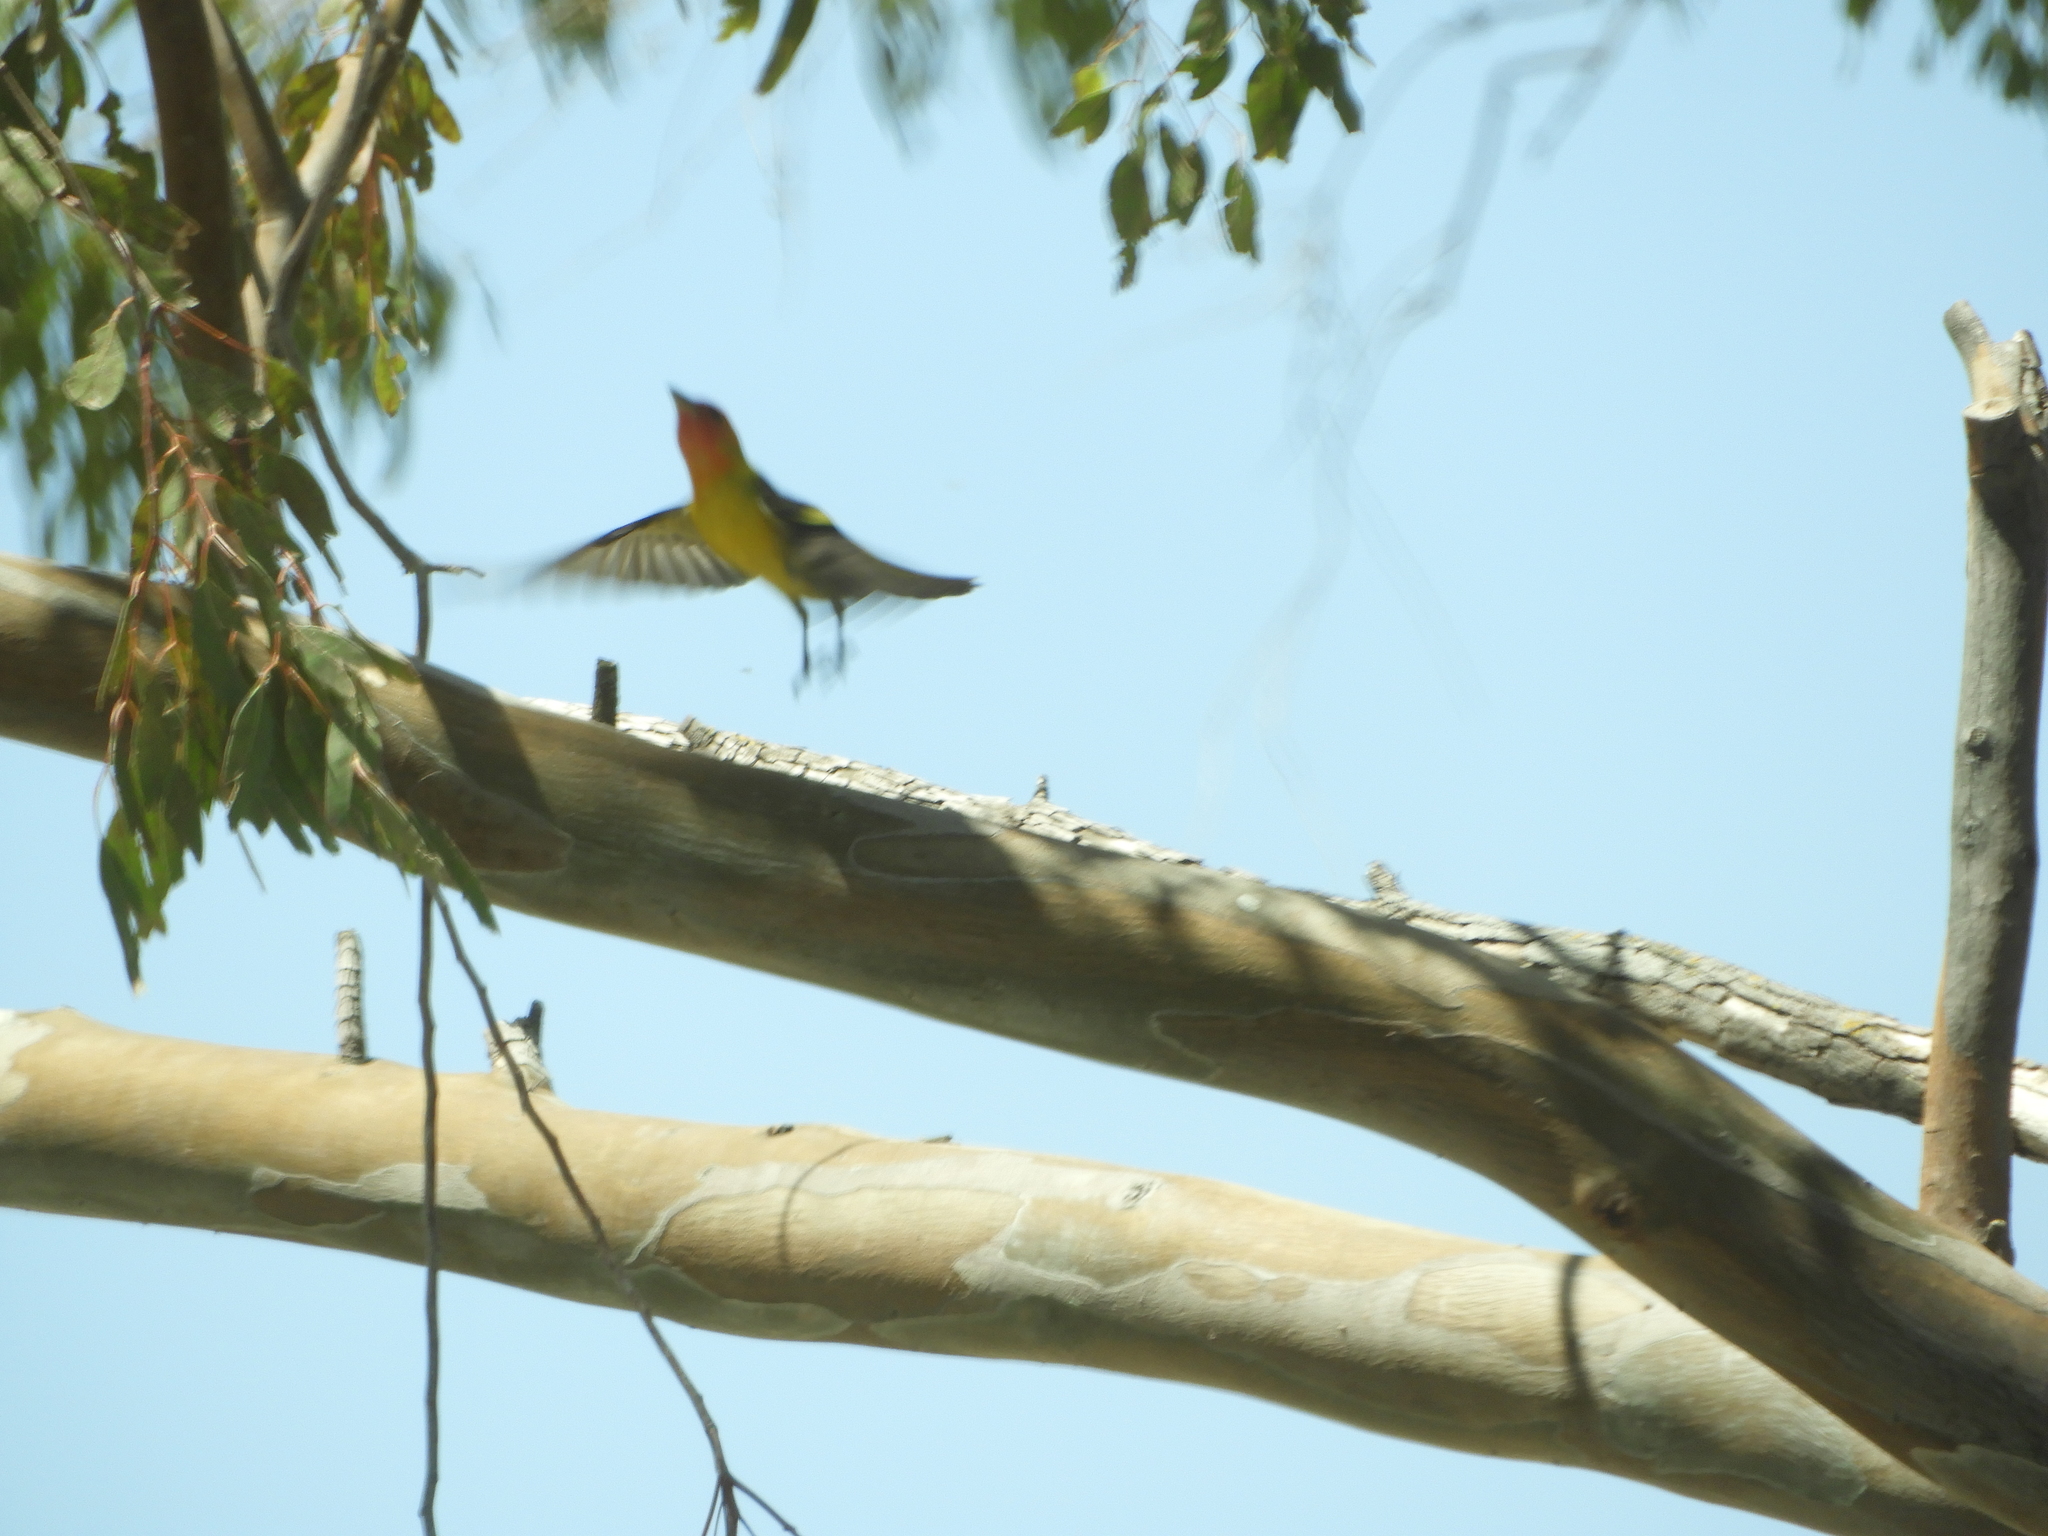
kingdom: Animalia
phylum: Chordata
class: Aves
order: Passeriformes
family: Cardinalidae
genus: Piranga
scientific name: Piranga ludoviciana
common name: Western tanager
